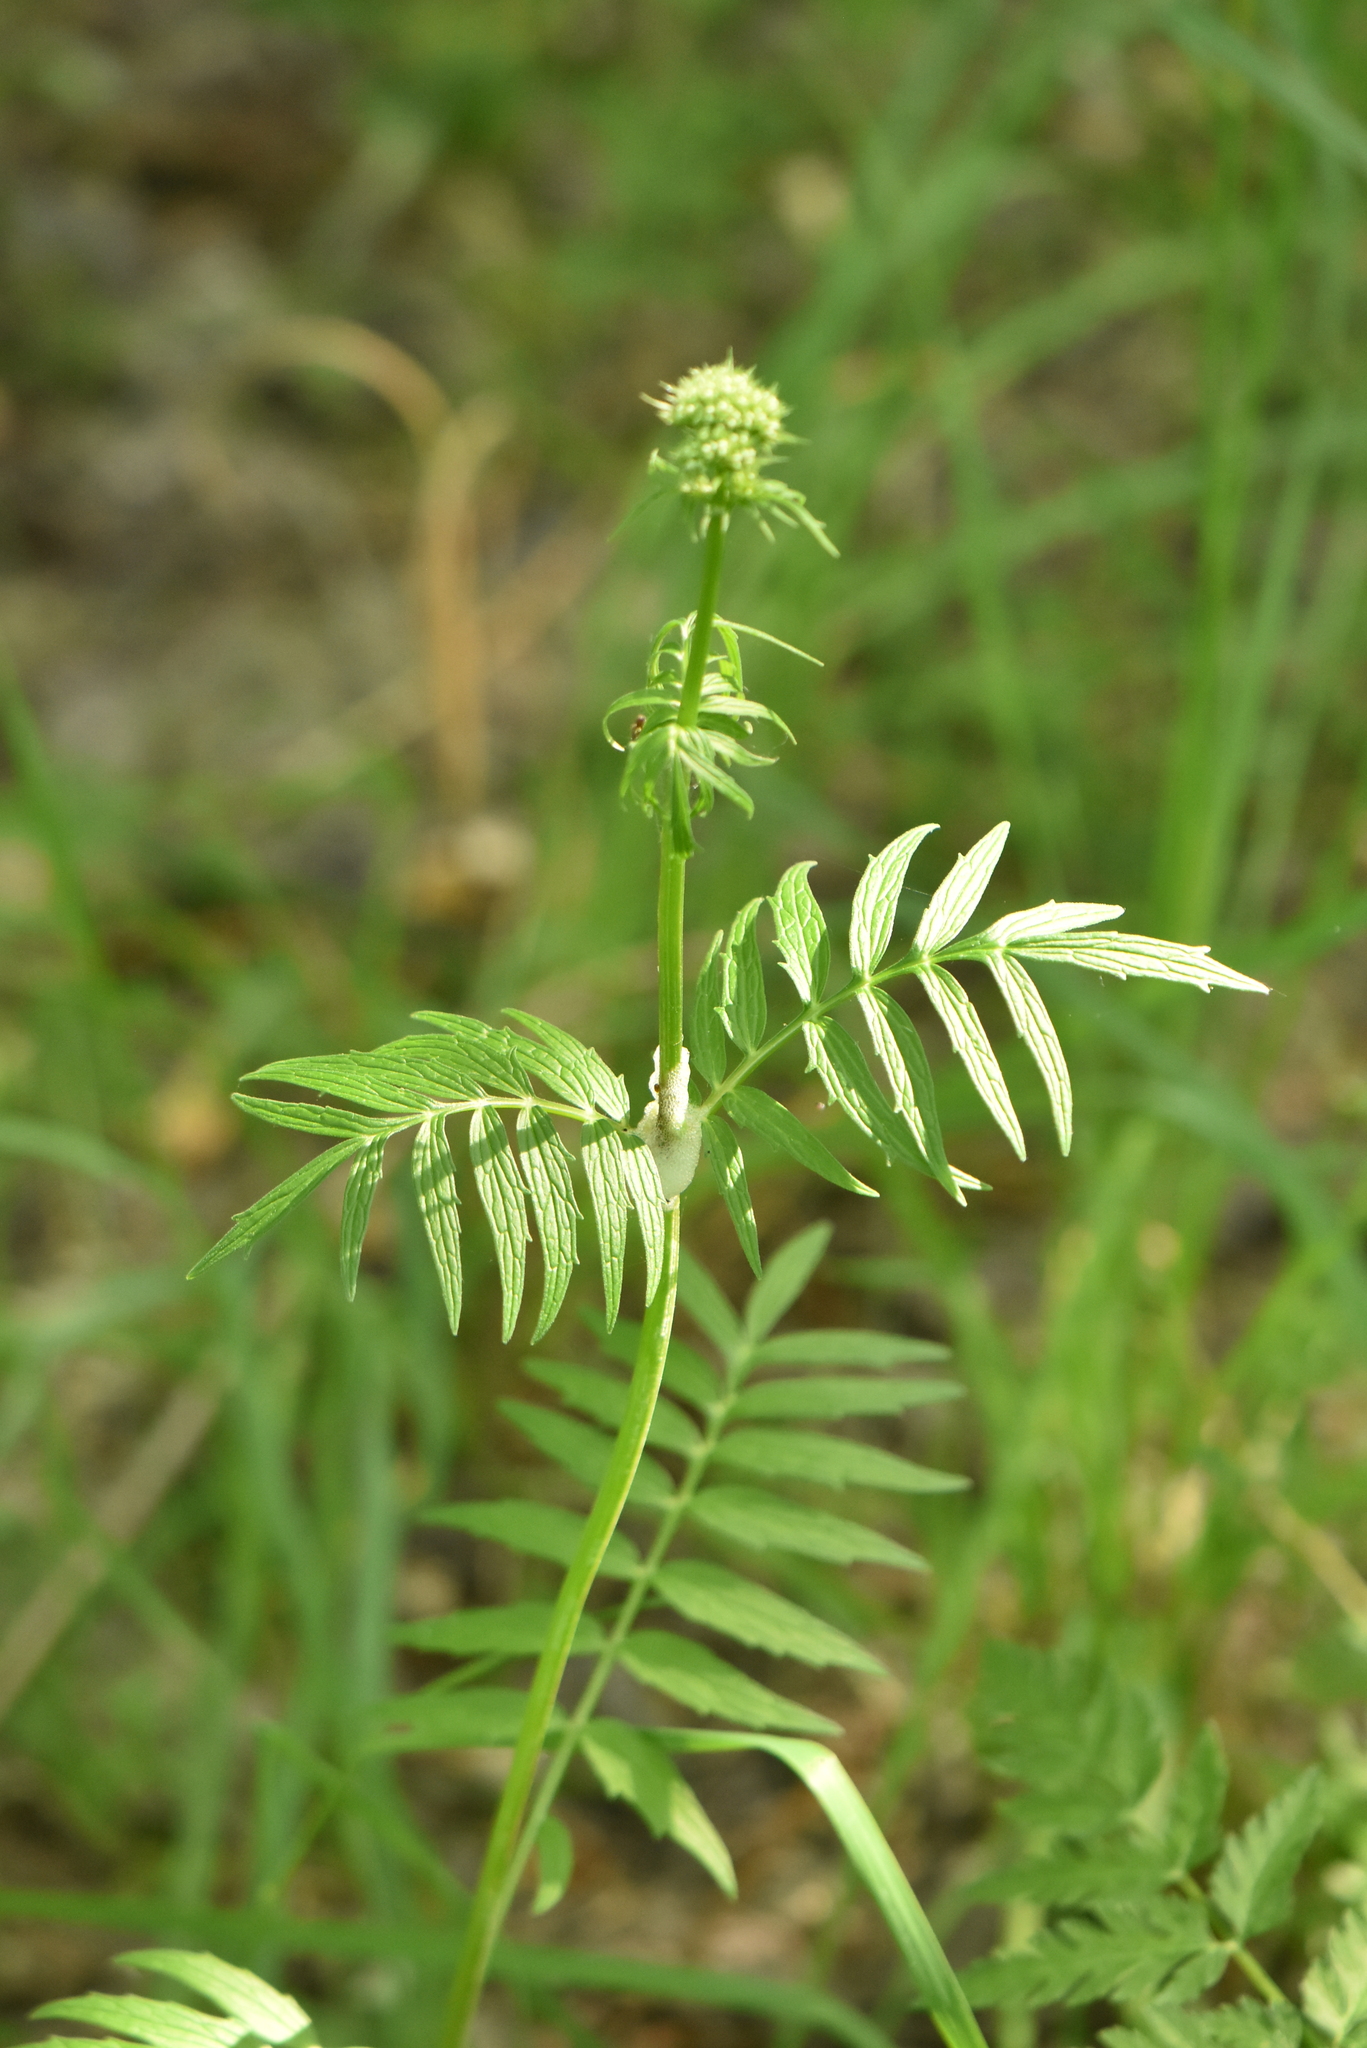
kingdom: Plantae
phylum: Tracheophyta
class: Magnoliopsida
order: Dipsacales
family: Caprifoliaceae
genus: Valeriana
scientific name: Valeriana officinalis
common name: Common valerian
